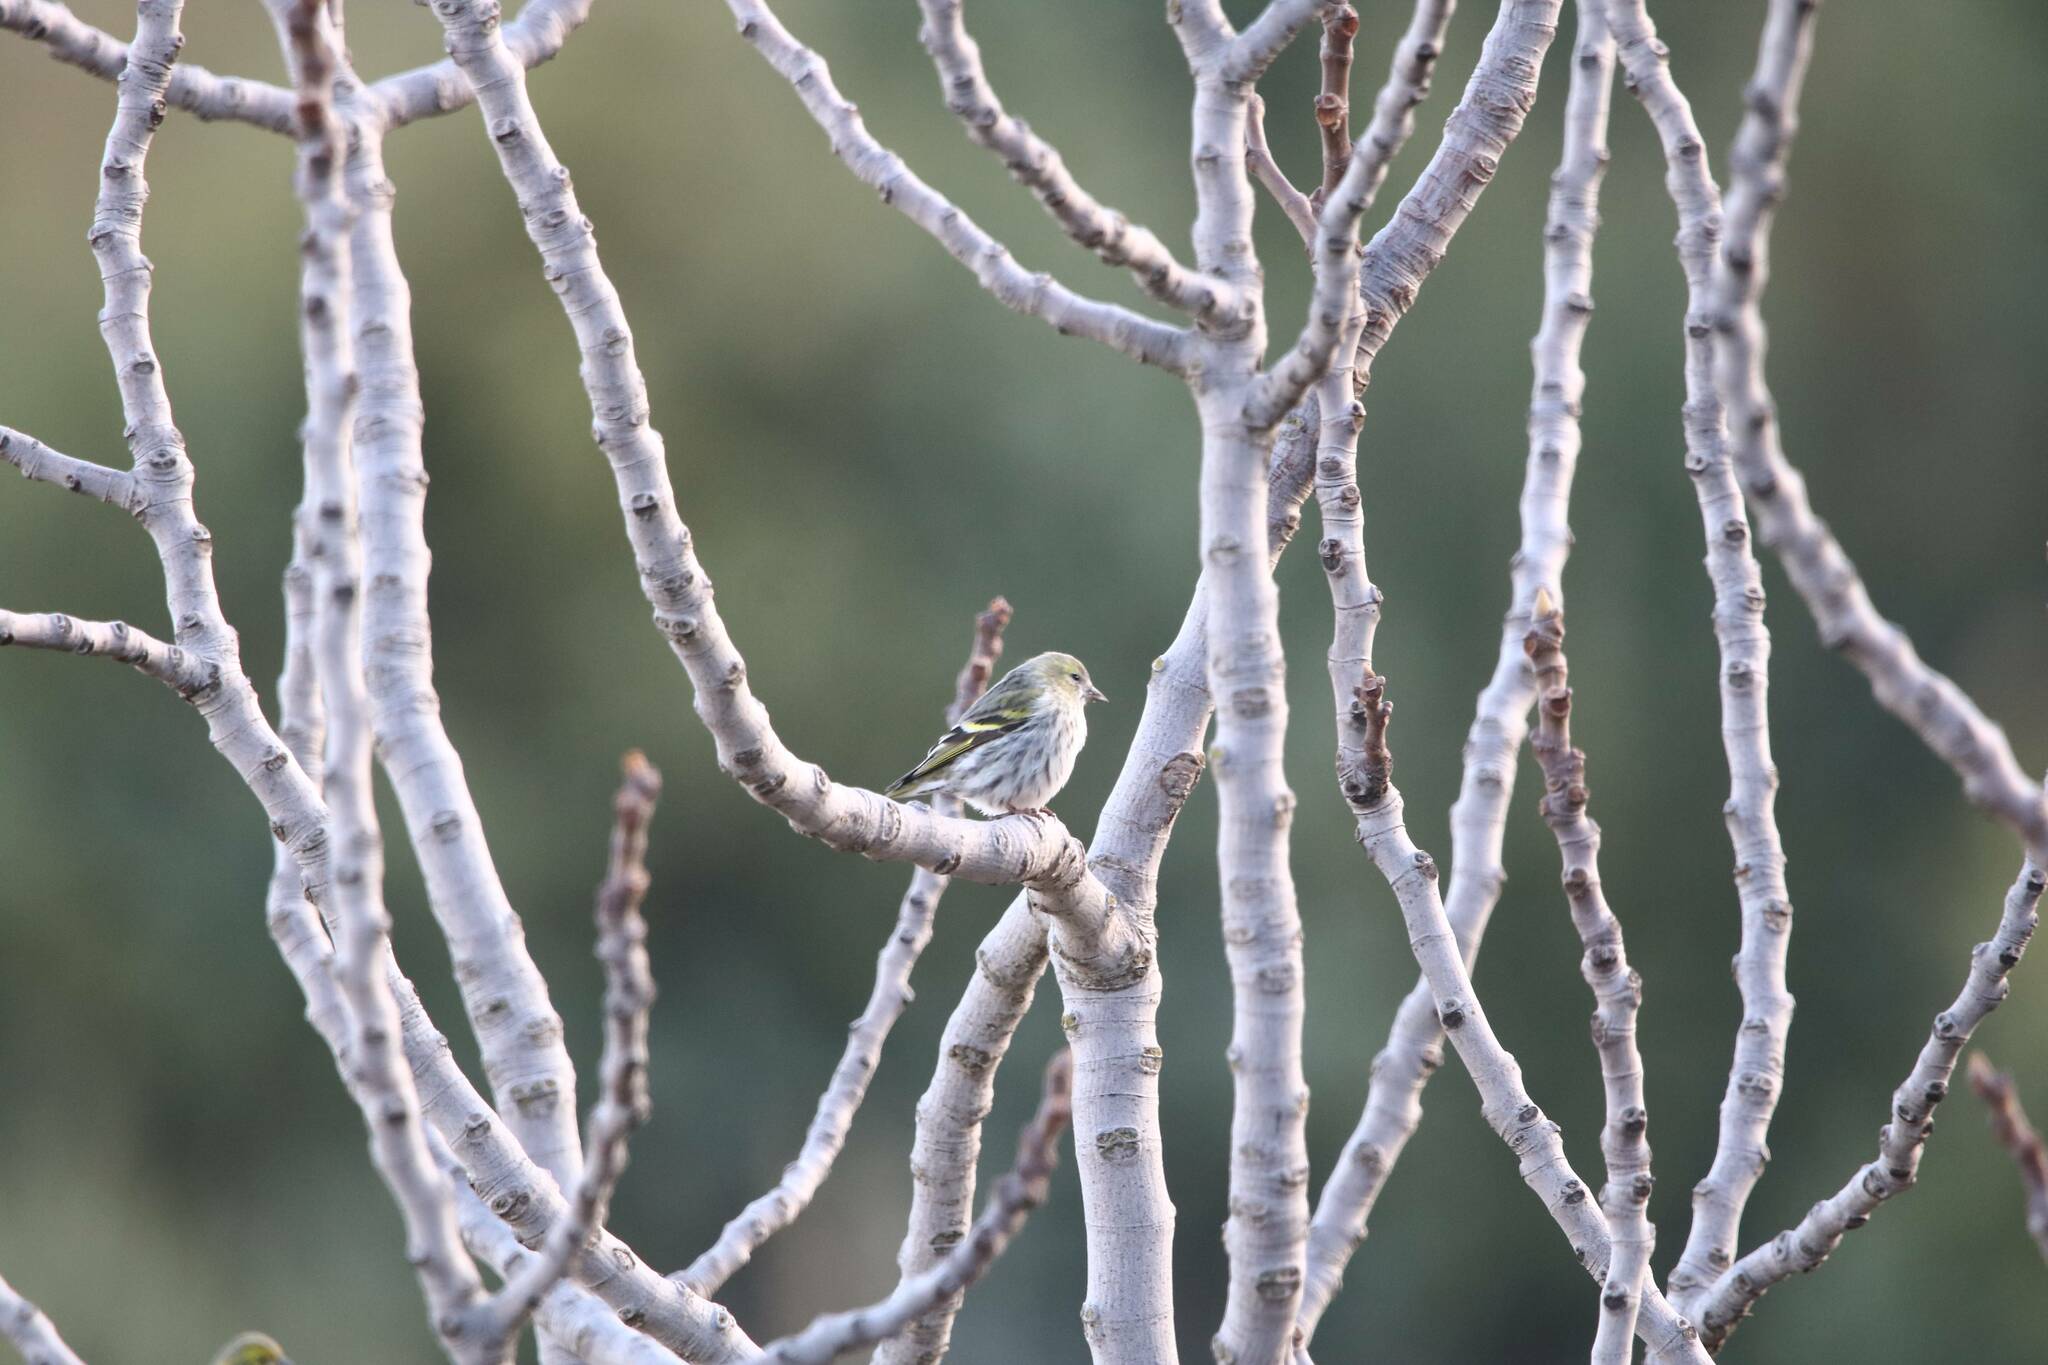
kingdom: Animalia
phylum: Chordata
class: Aves
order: Passeriformes
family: Fringillidae
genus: Spinus
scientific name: Spinus spinus
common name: Eurasian siskin
